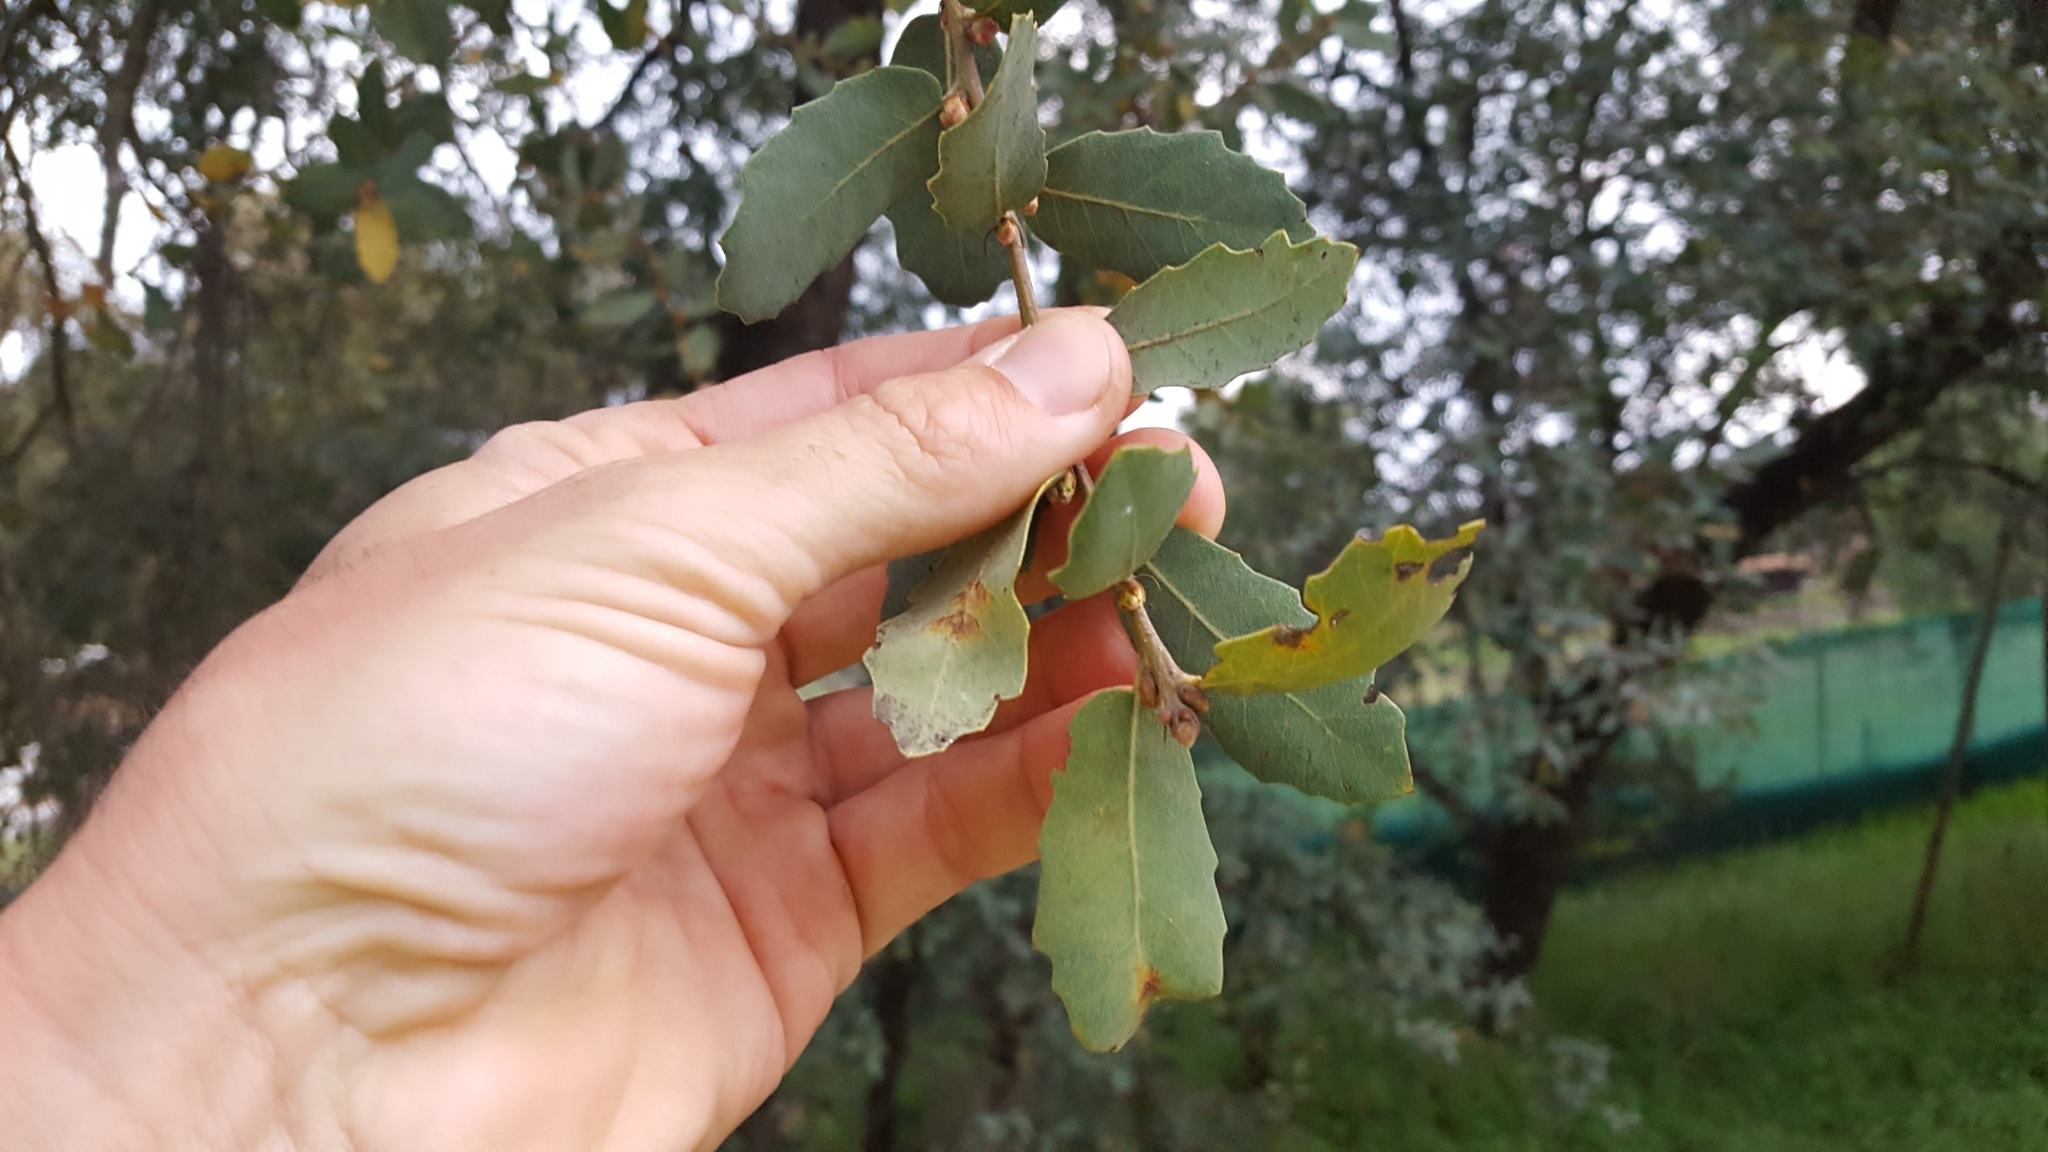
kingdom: Plantae
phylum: Tracheophyta
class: Magnoliopsida
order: Fagales
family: Fagaceae
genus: Quercus
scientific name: Quercus engelmannii
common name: Engelmann oak
